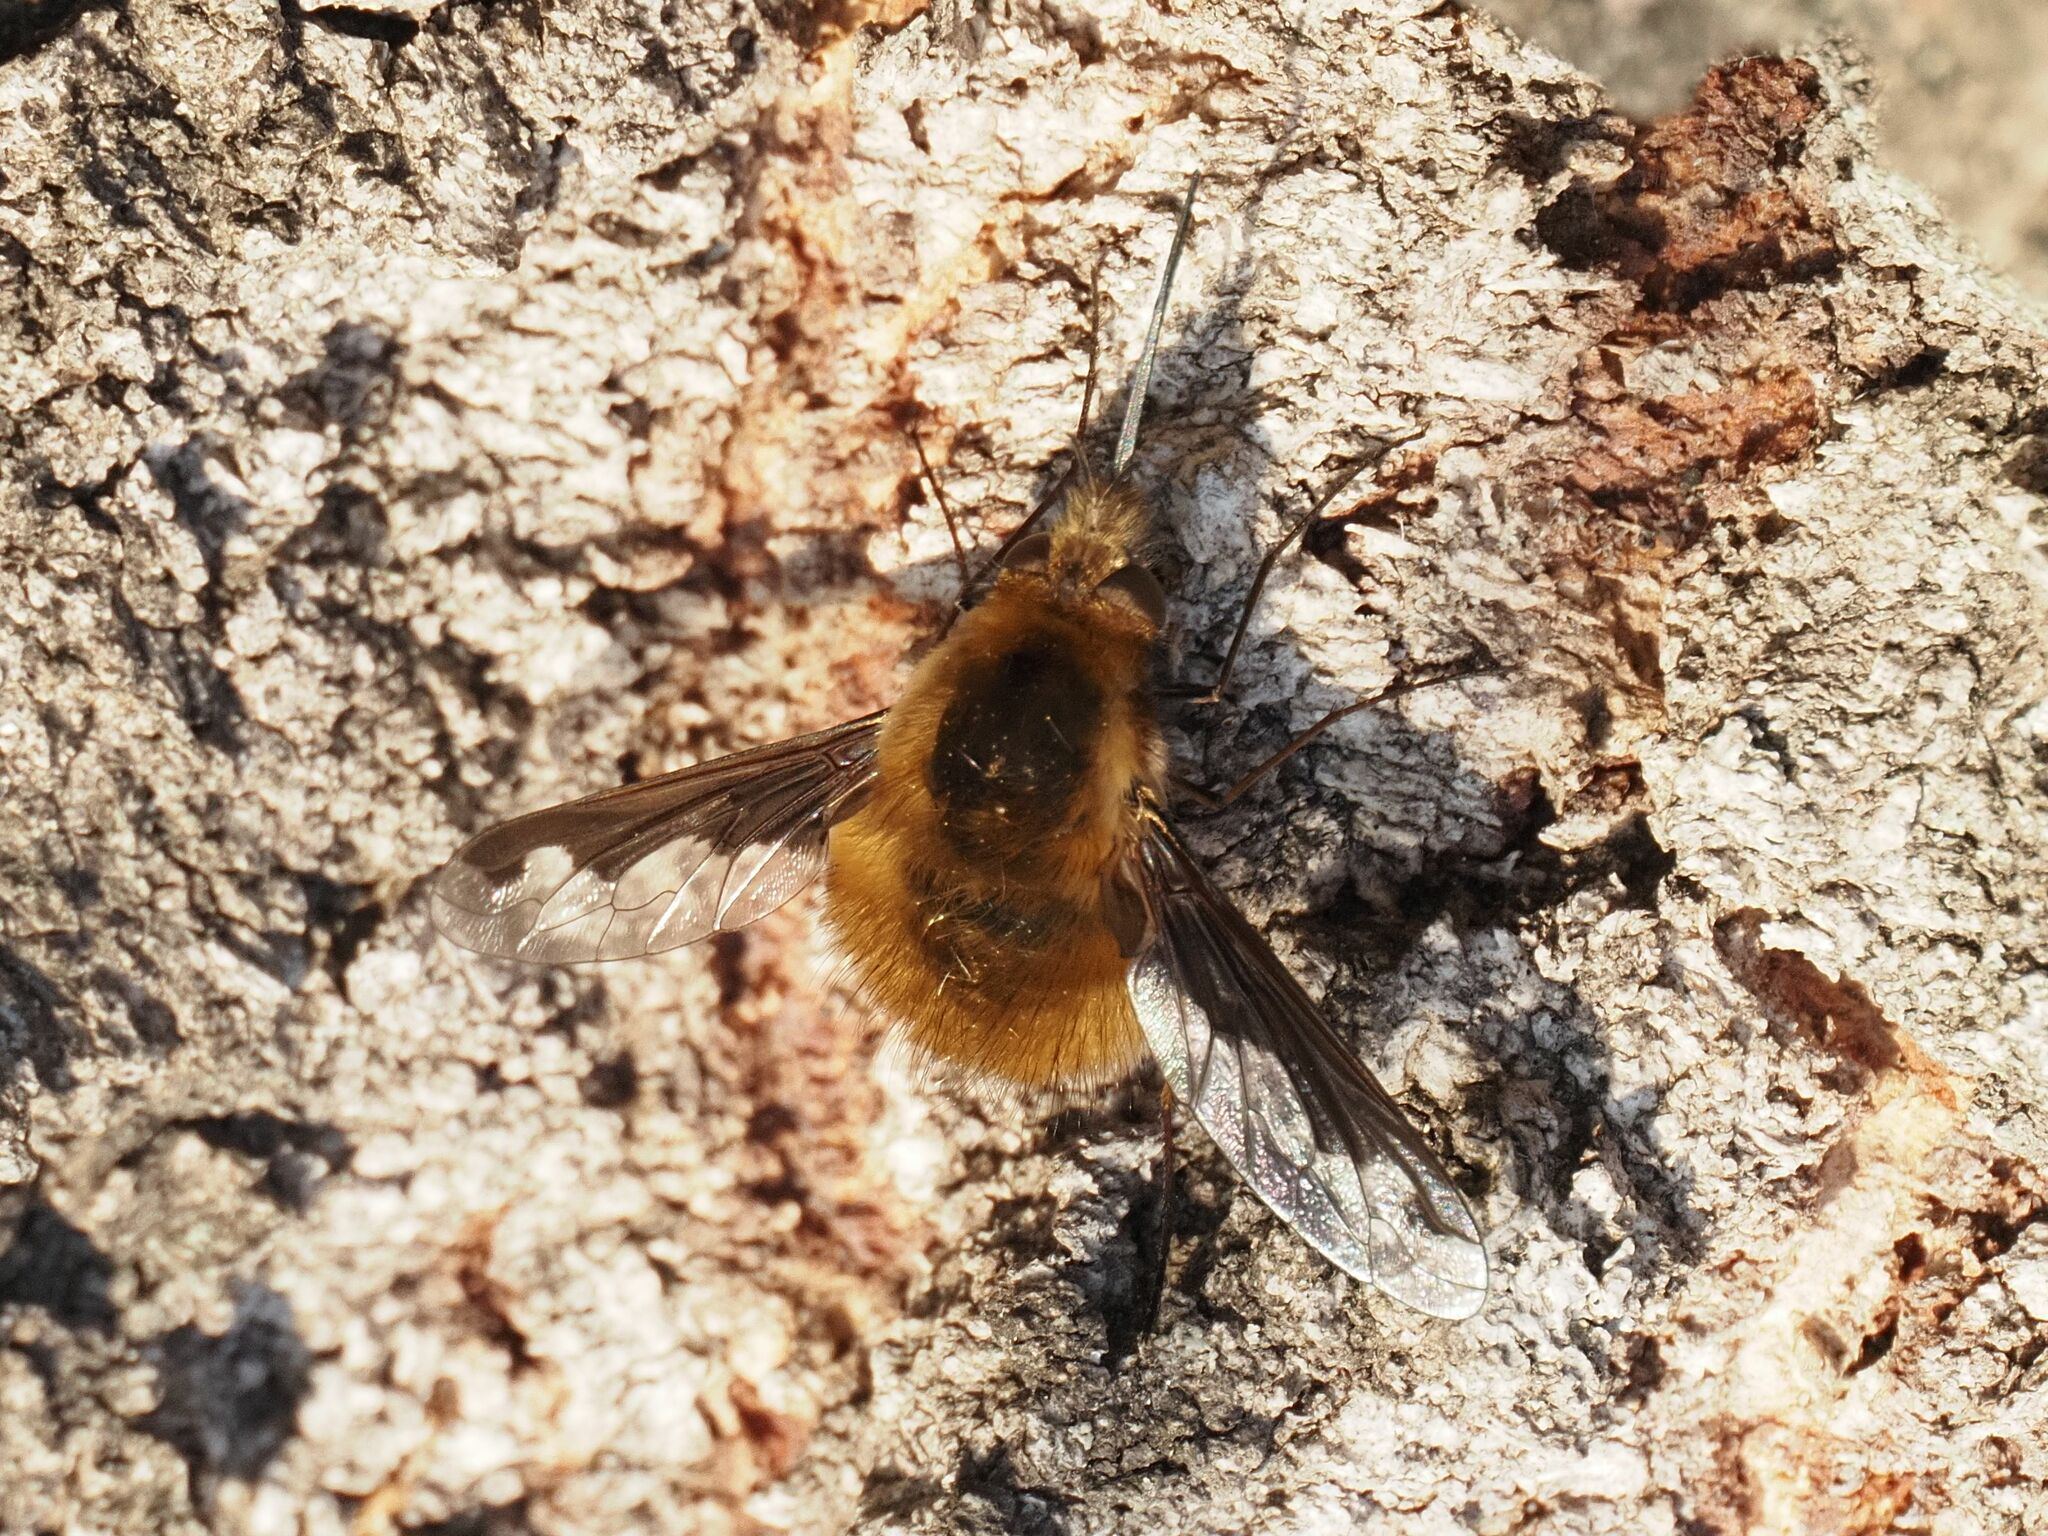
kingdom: Animalia
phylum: Arthropoda
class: Insecta
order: Diptera
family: Bombyliidae
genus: Bombylius
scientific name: Bombylius major
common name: Bee fly
